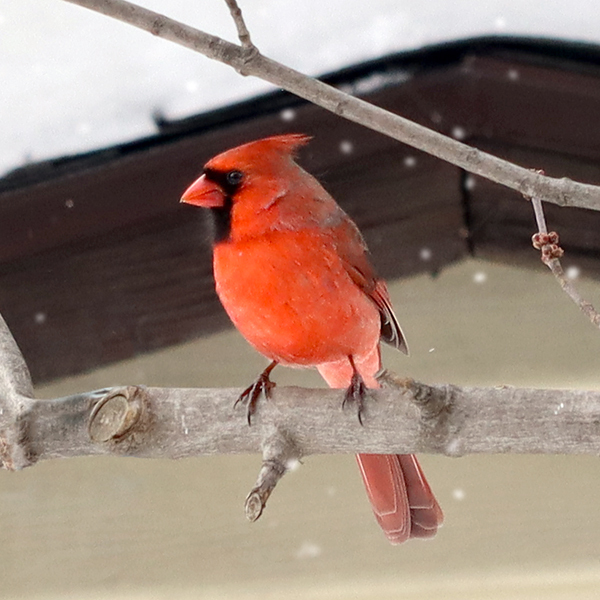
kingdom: Animalia
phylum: Chordata
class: Aves
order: Passeriformes
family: Cardinalidae
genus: Cardinalis
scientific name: Cardinalis cardinalis
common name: Northern cardinal
